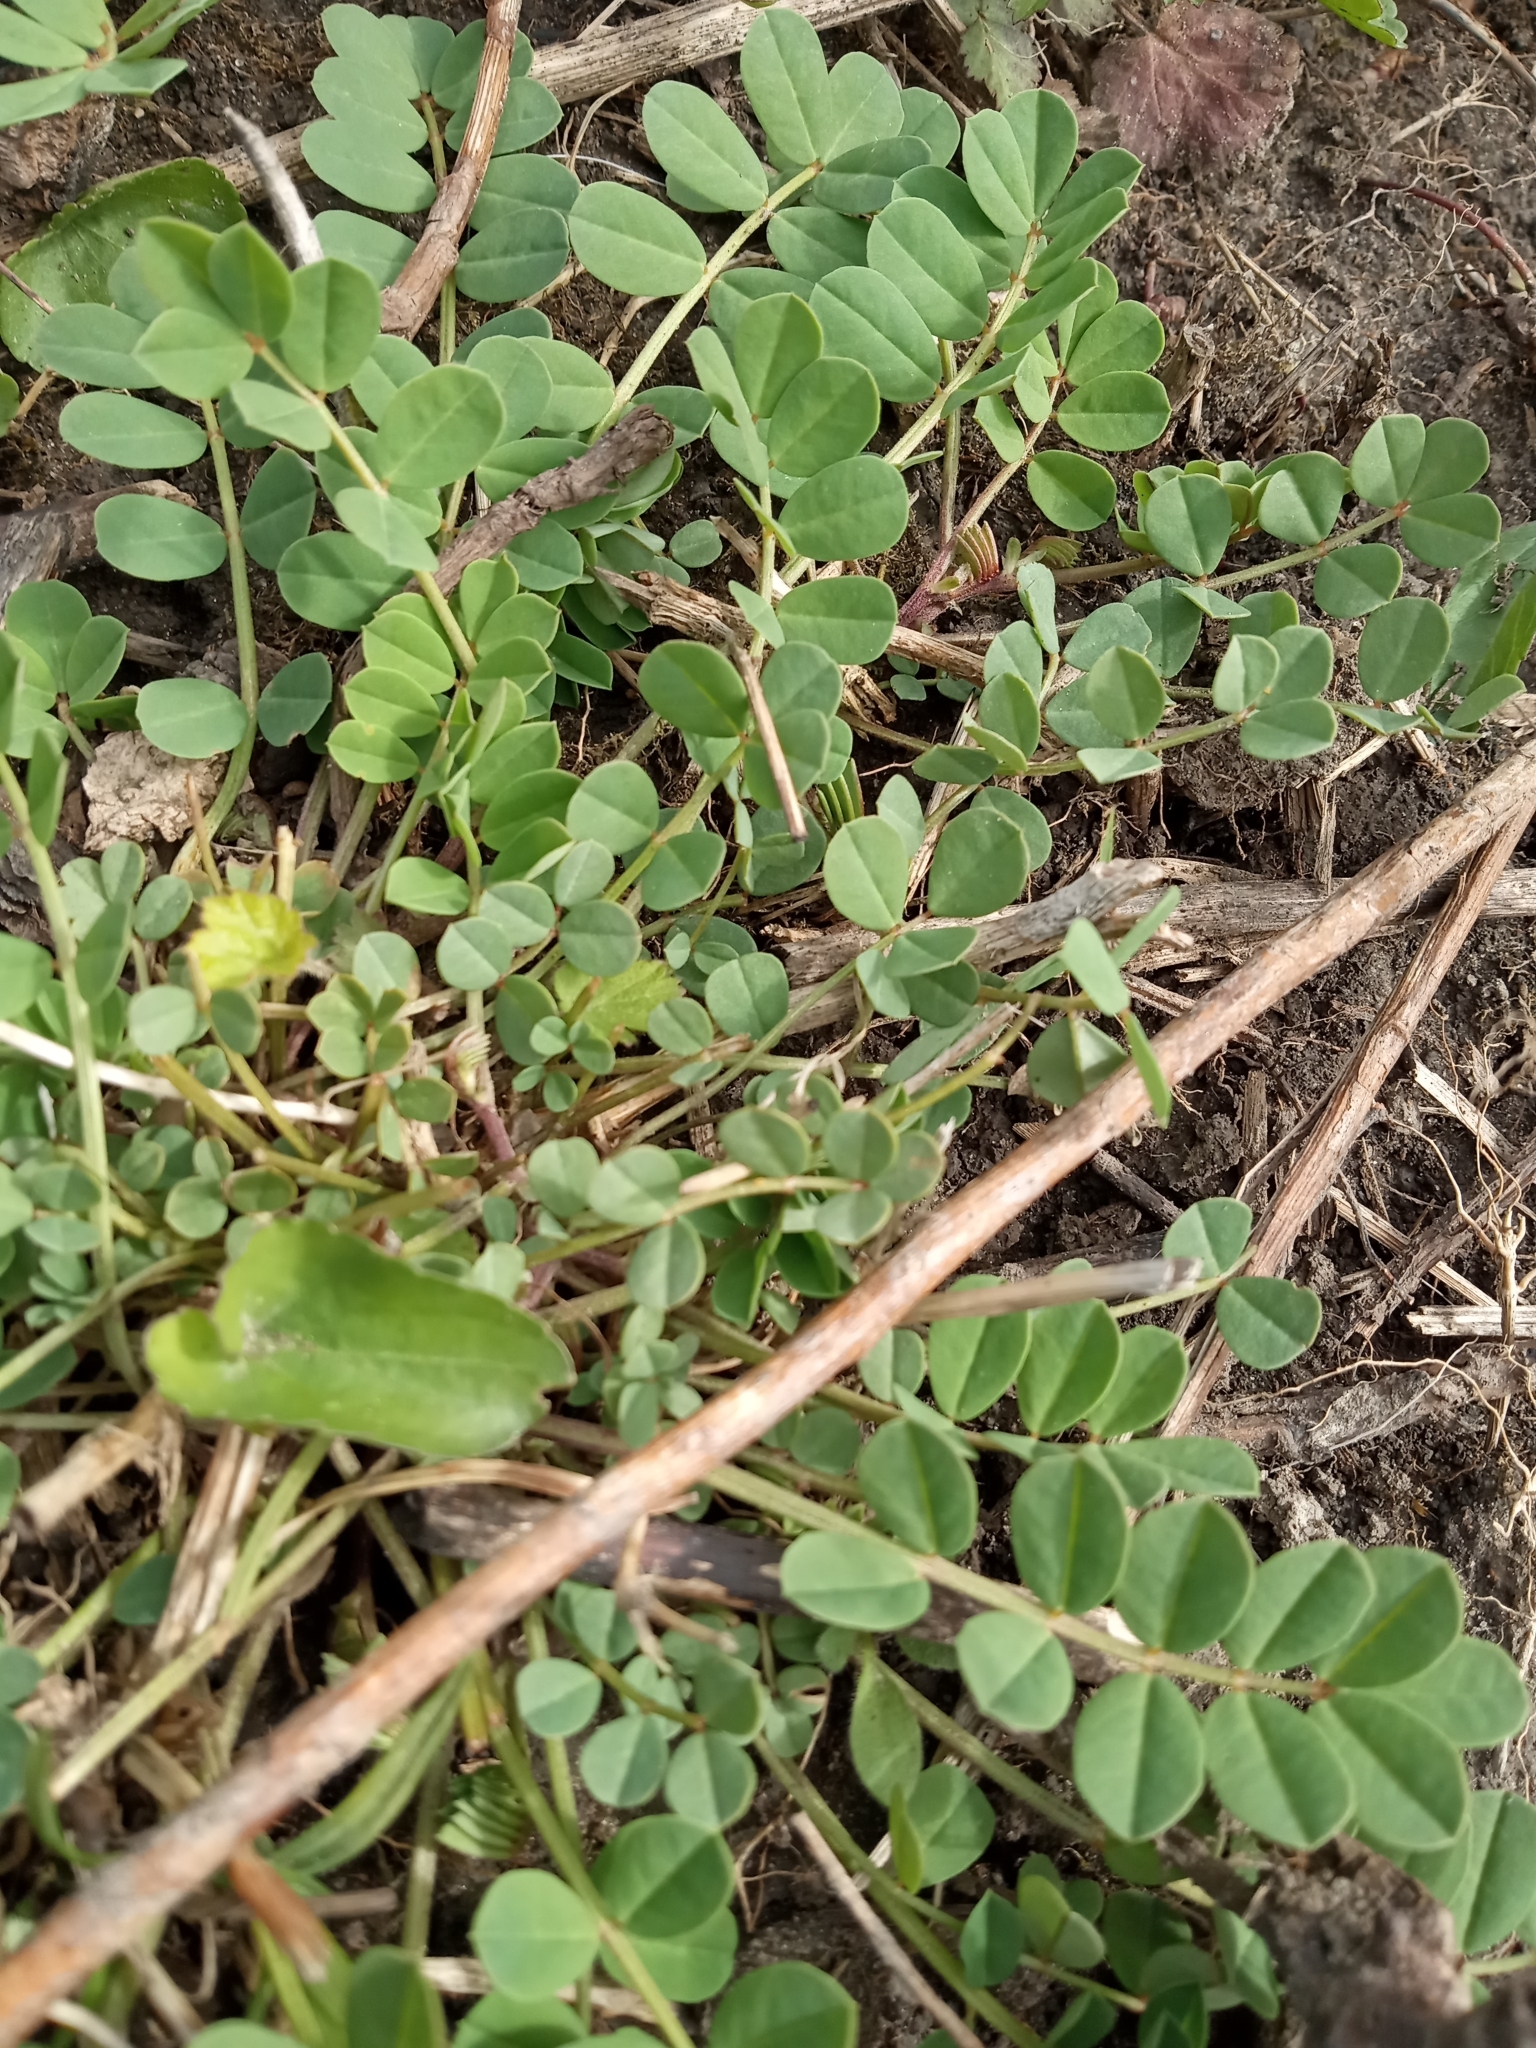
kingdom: Plantae
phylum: Tracheophyta
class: Magnoliopsida
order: Fabales
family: Fabaceae
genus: Coronilla
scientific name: Coronilla varia
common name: Crownvetch
